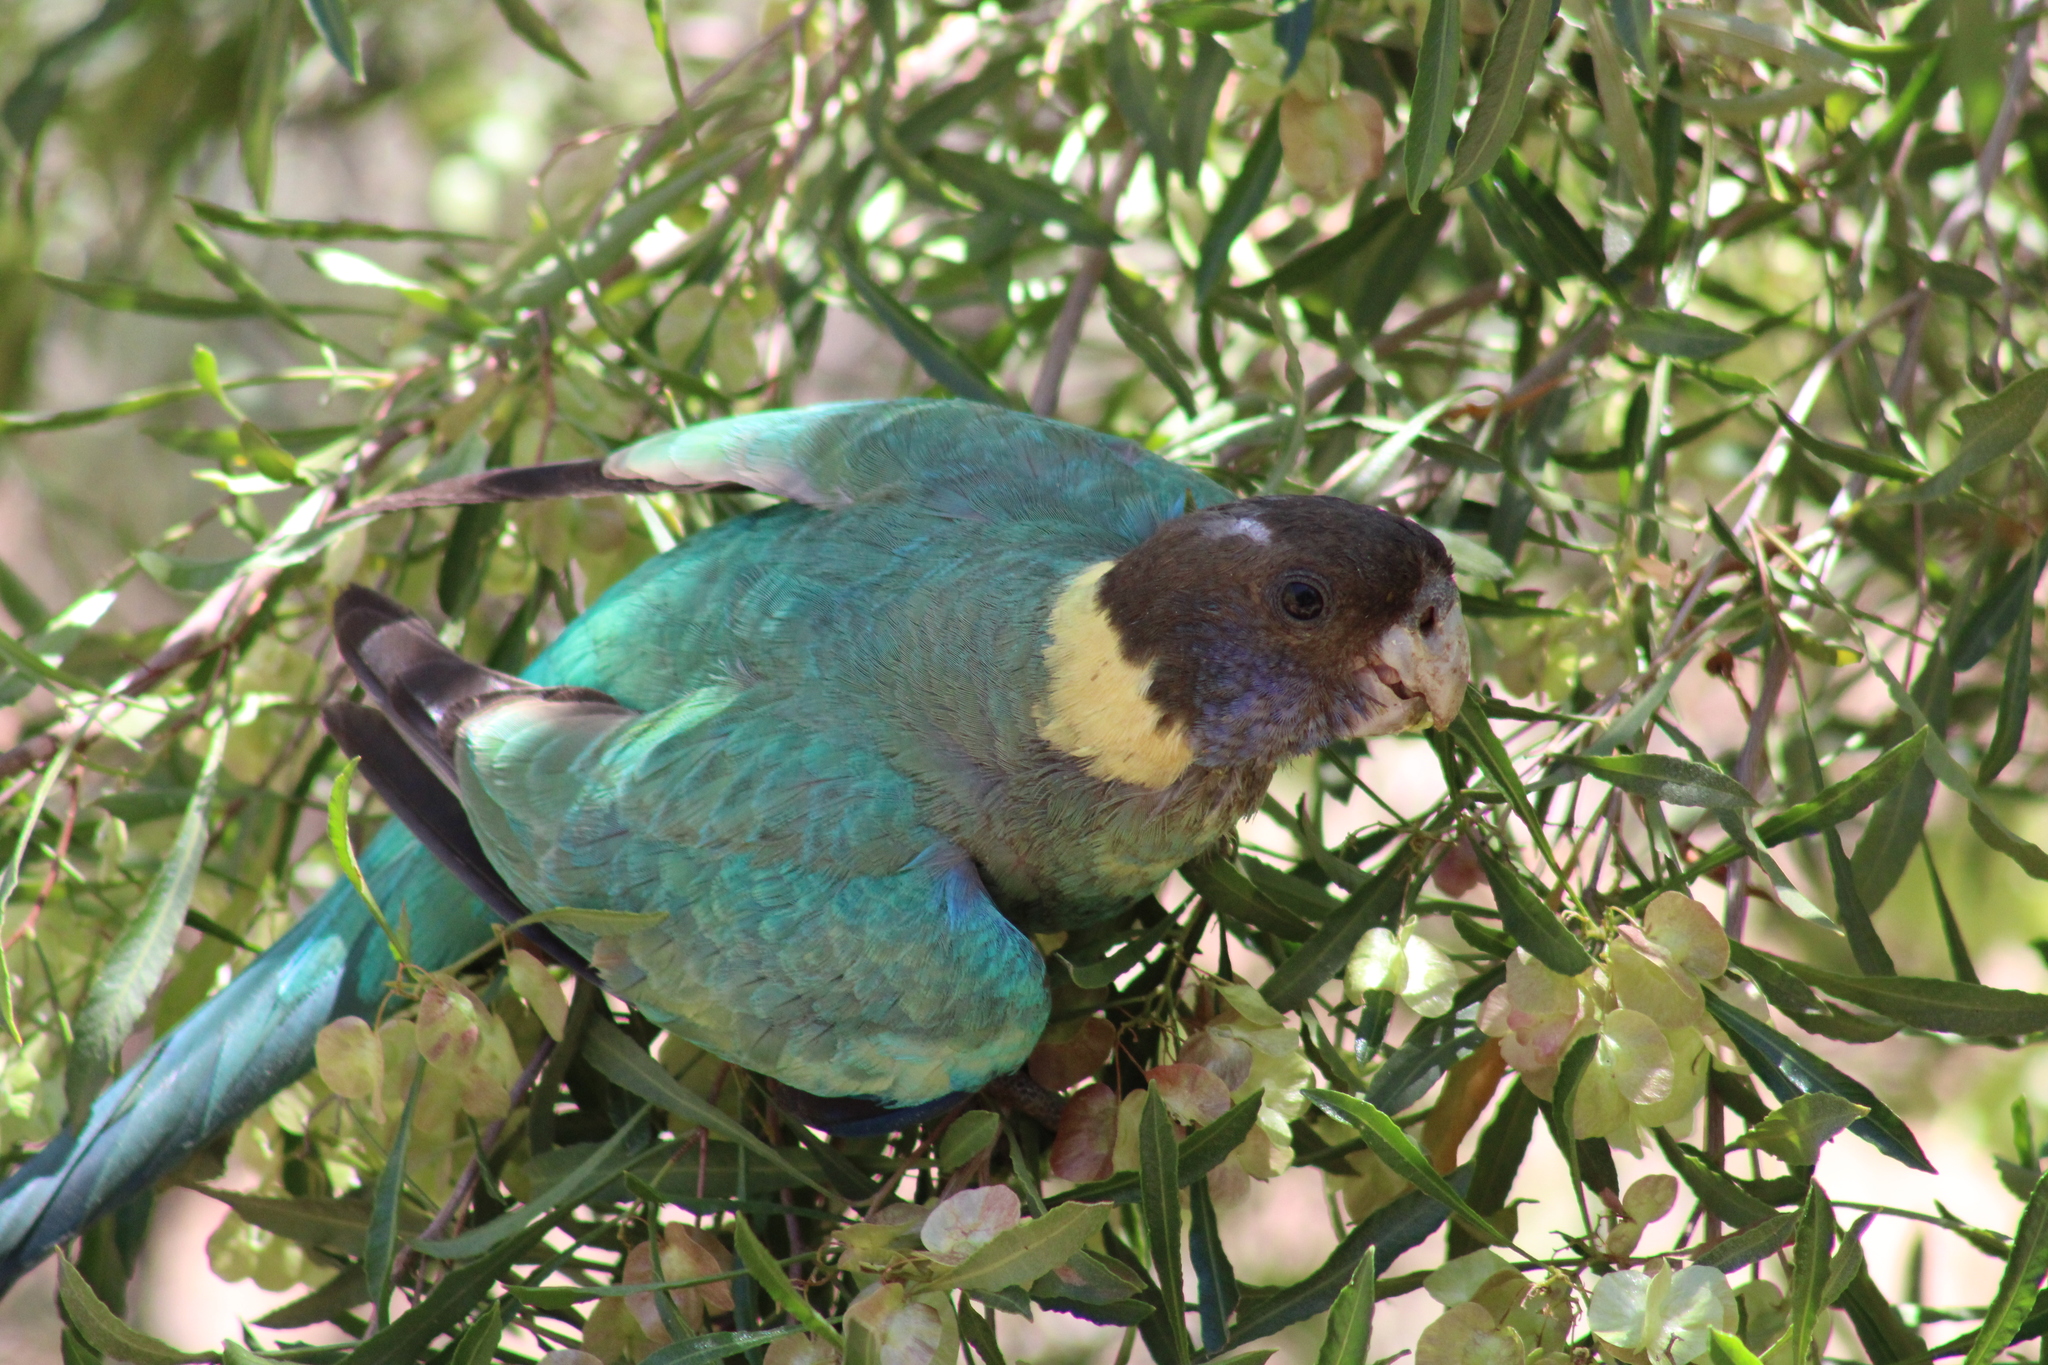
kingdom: Animalia
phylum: Chordata
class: Aves
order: Psittaciformes
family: Psittacidae
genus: Barnardius
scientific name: Barnardius zonarius
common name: Australian ringneck
